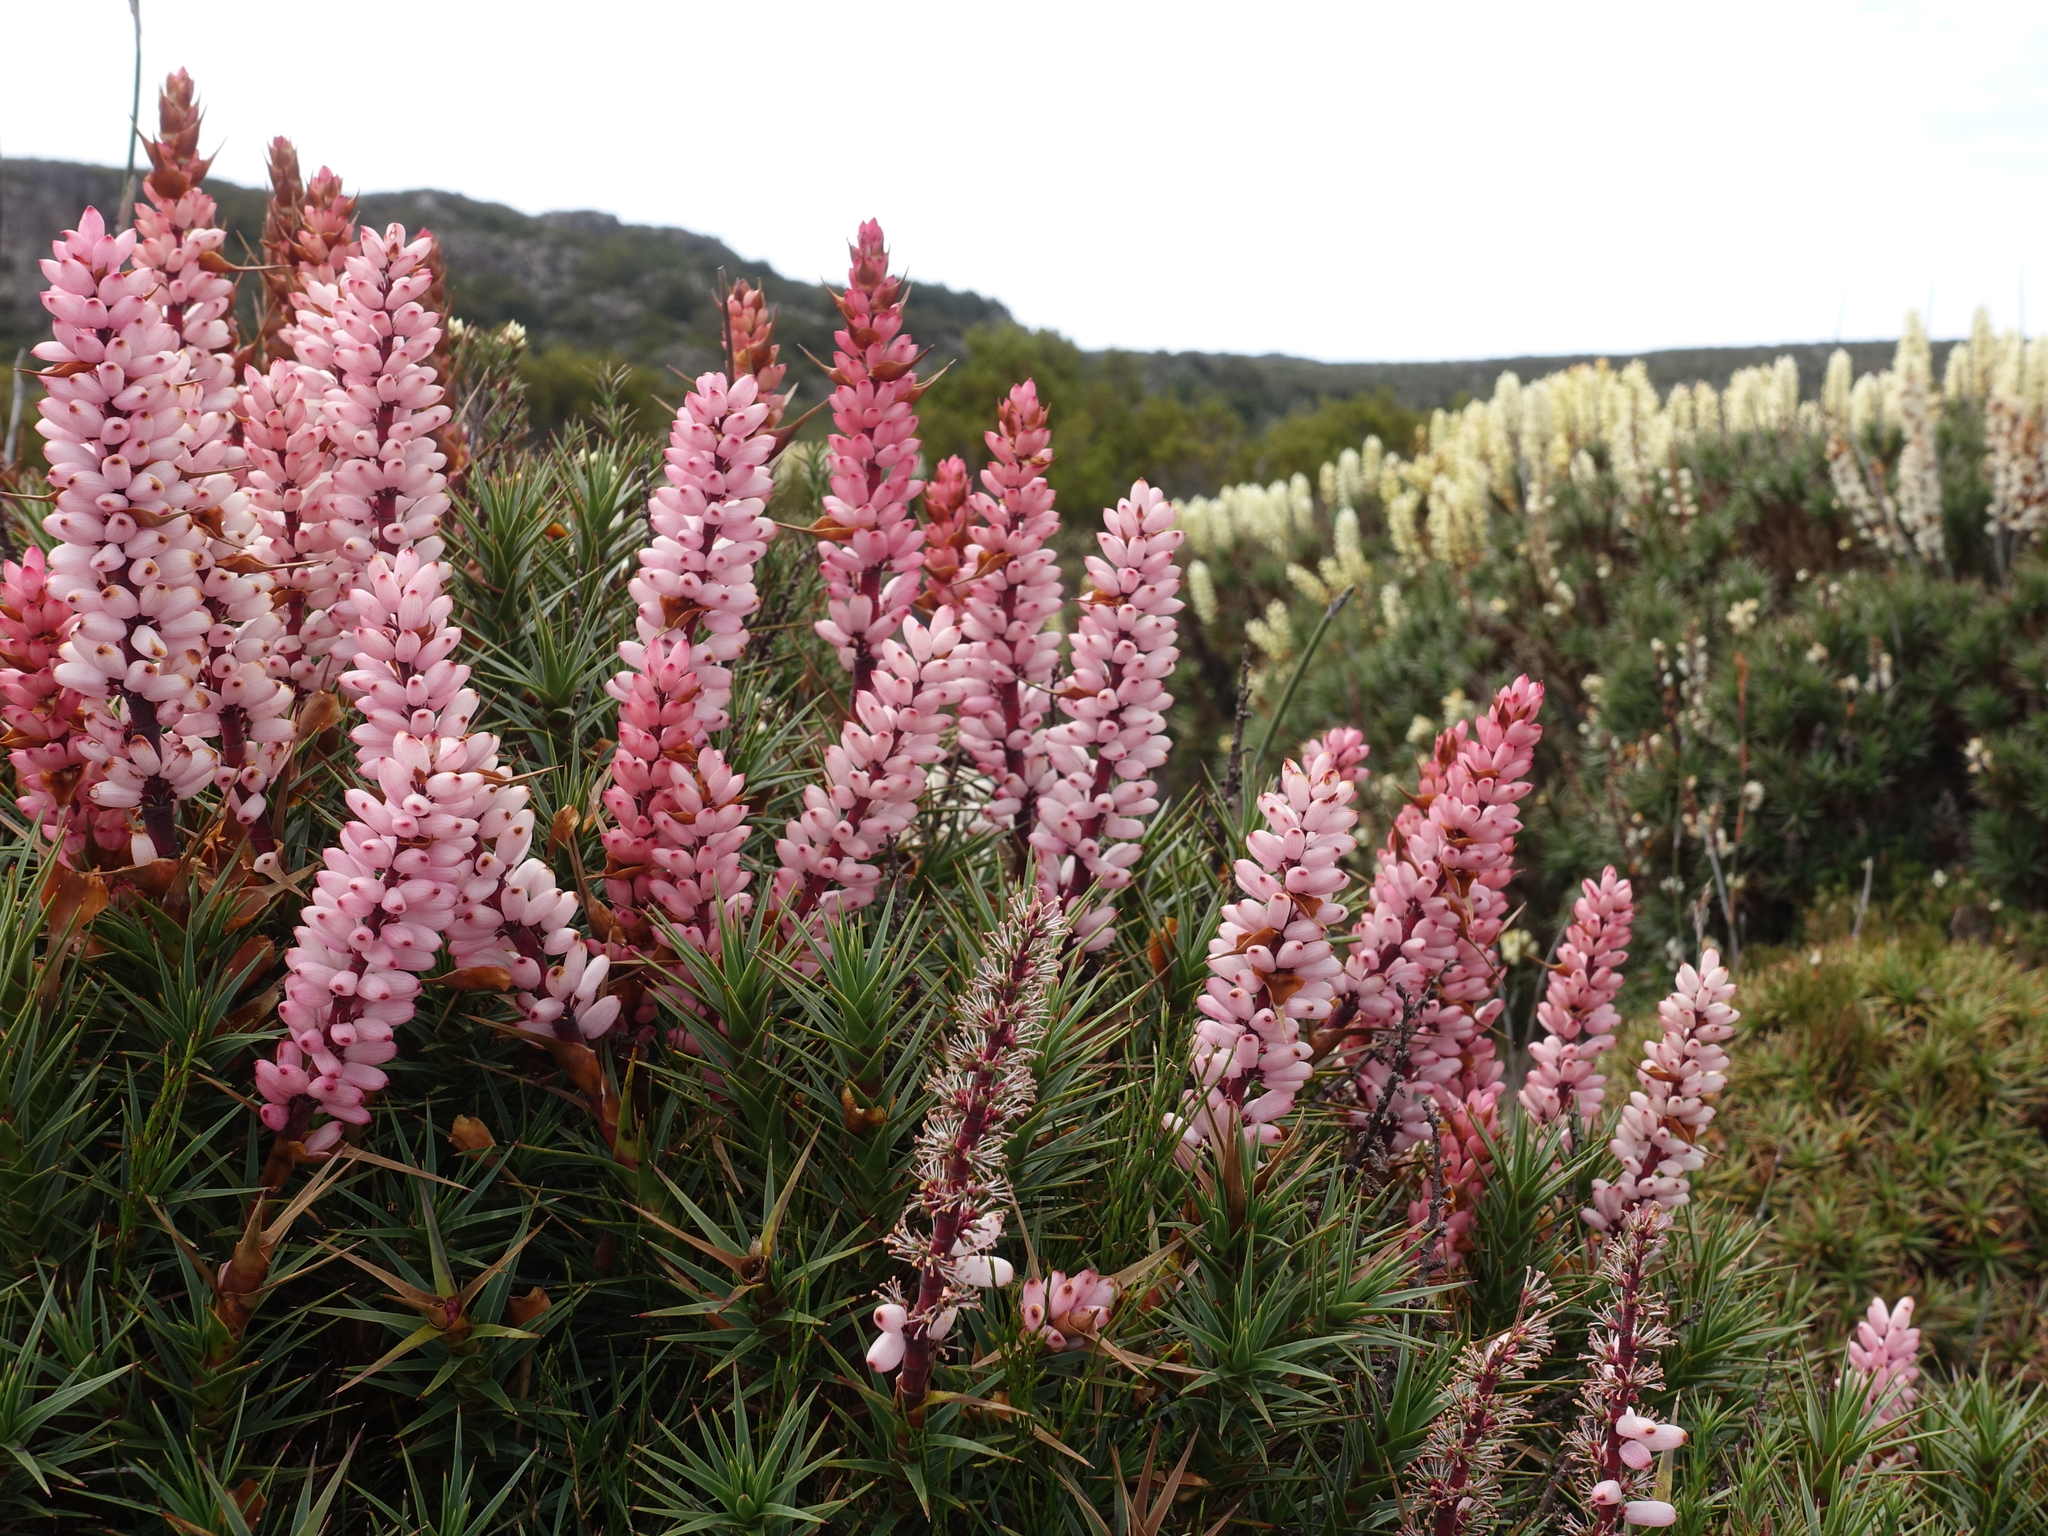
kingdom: Plantae
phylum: Tracheophyta
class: Magnoliopsida
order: Ericales
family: Ericaceae
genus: Dracophyllum
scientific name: Dracophyllum persistentifolium
